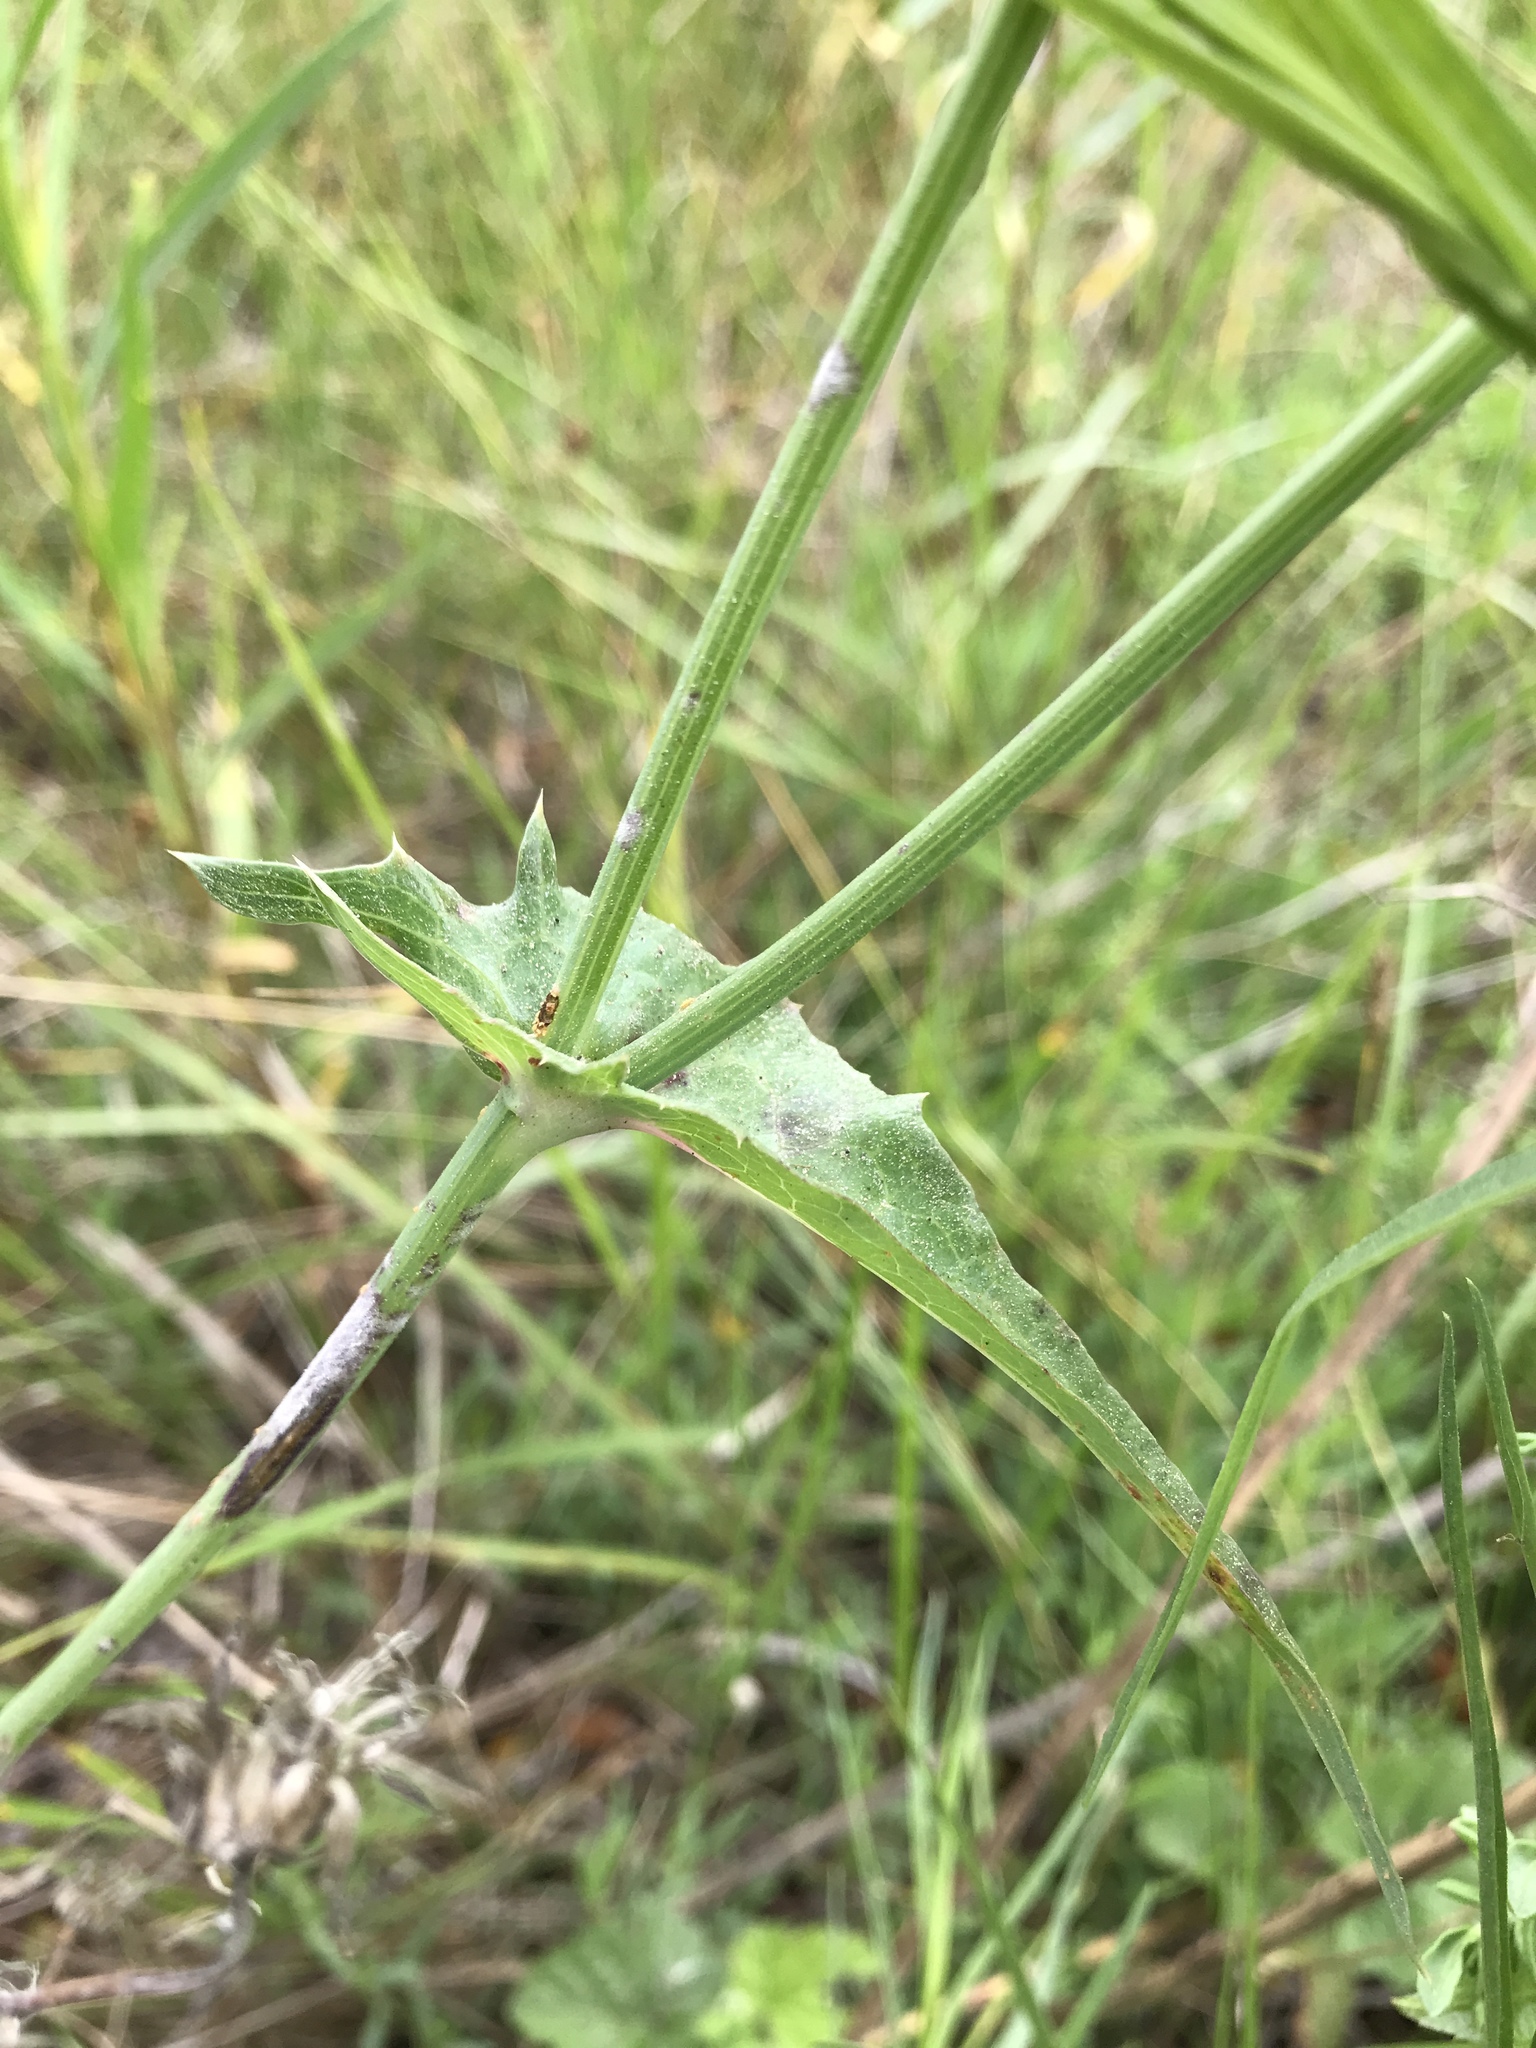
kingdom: Plantae
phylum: Tracheophyta
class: Magnoliopsida
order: Asterales
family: Asteraceae
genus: Sonchus
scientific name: Sonchus oleraceus
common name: Common sowthistle
